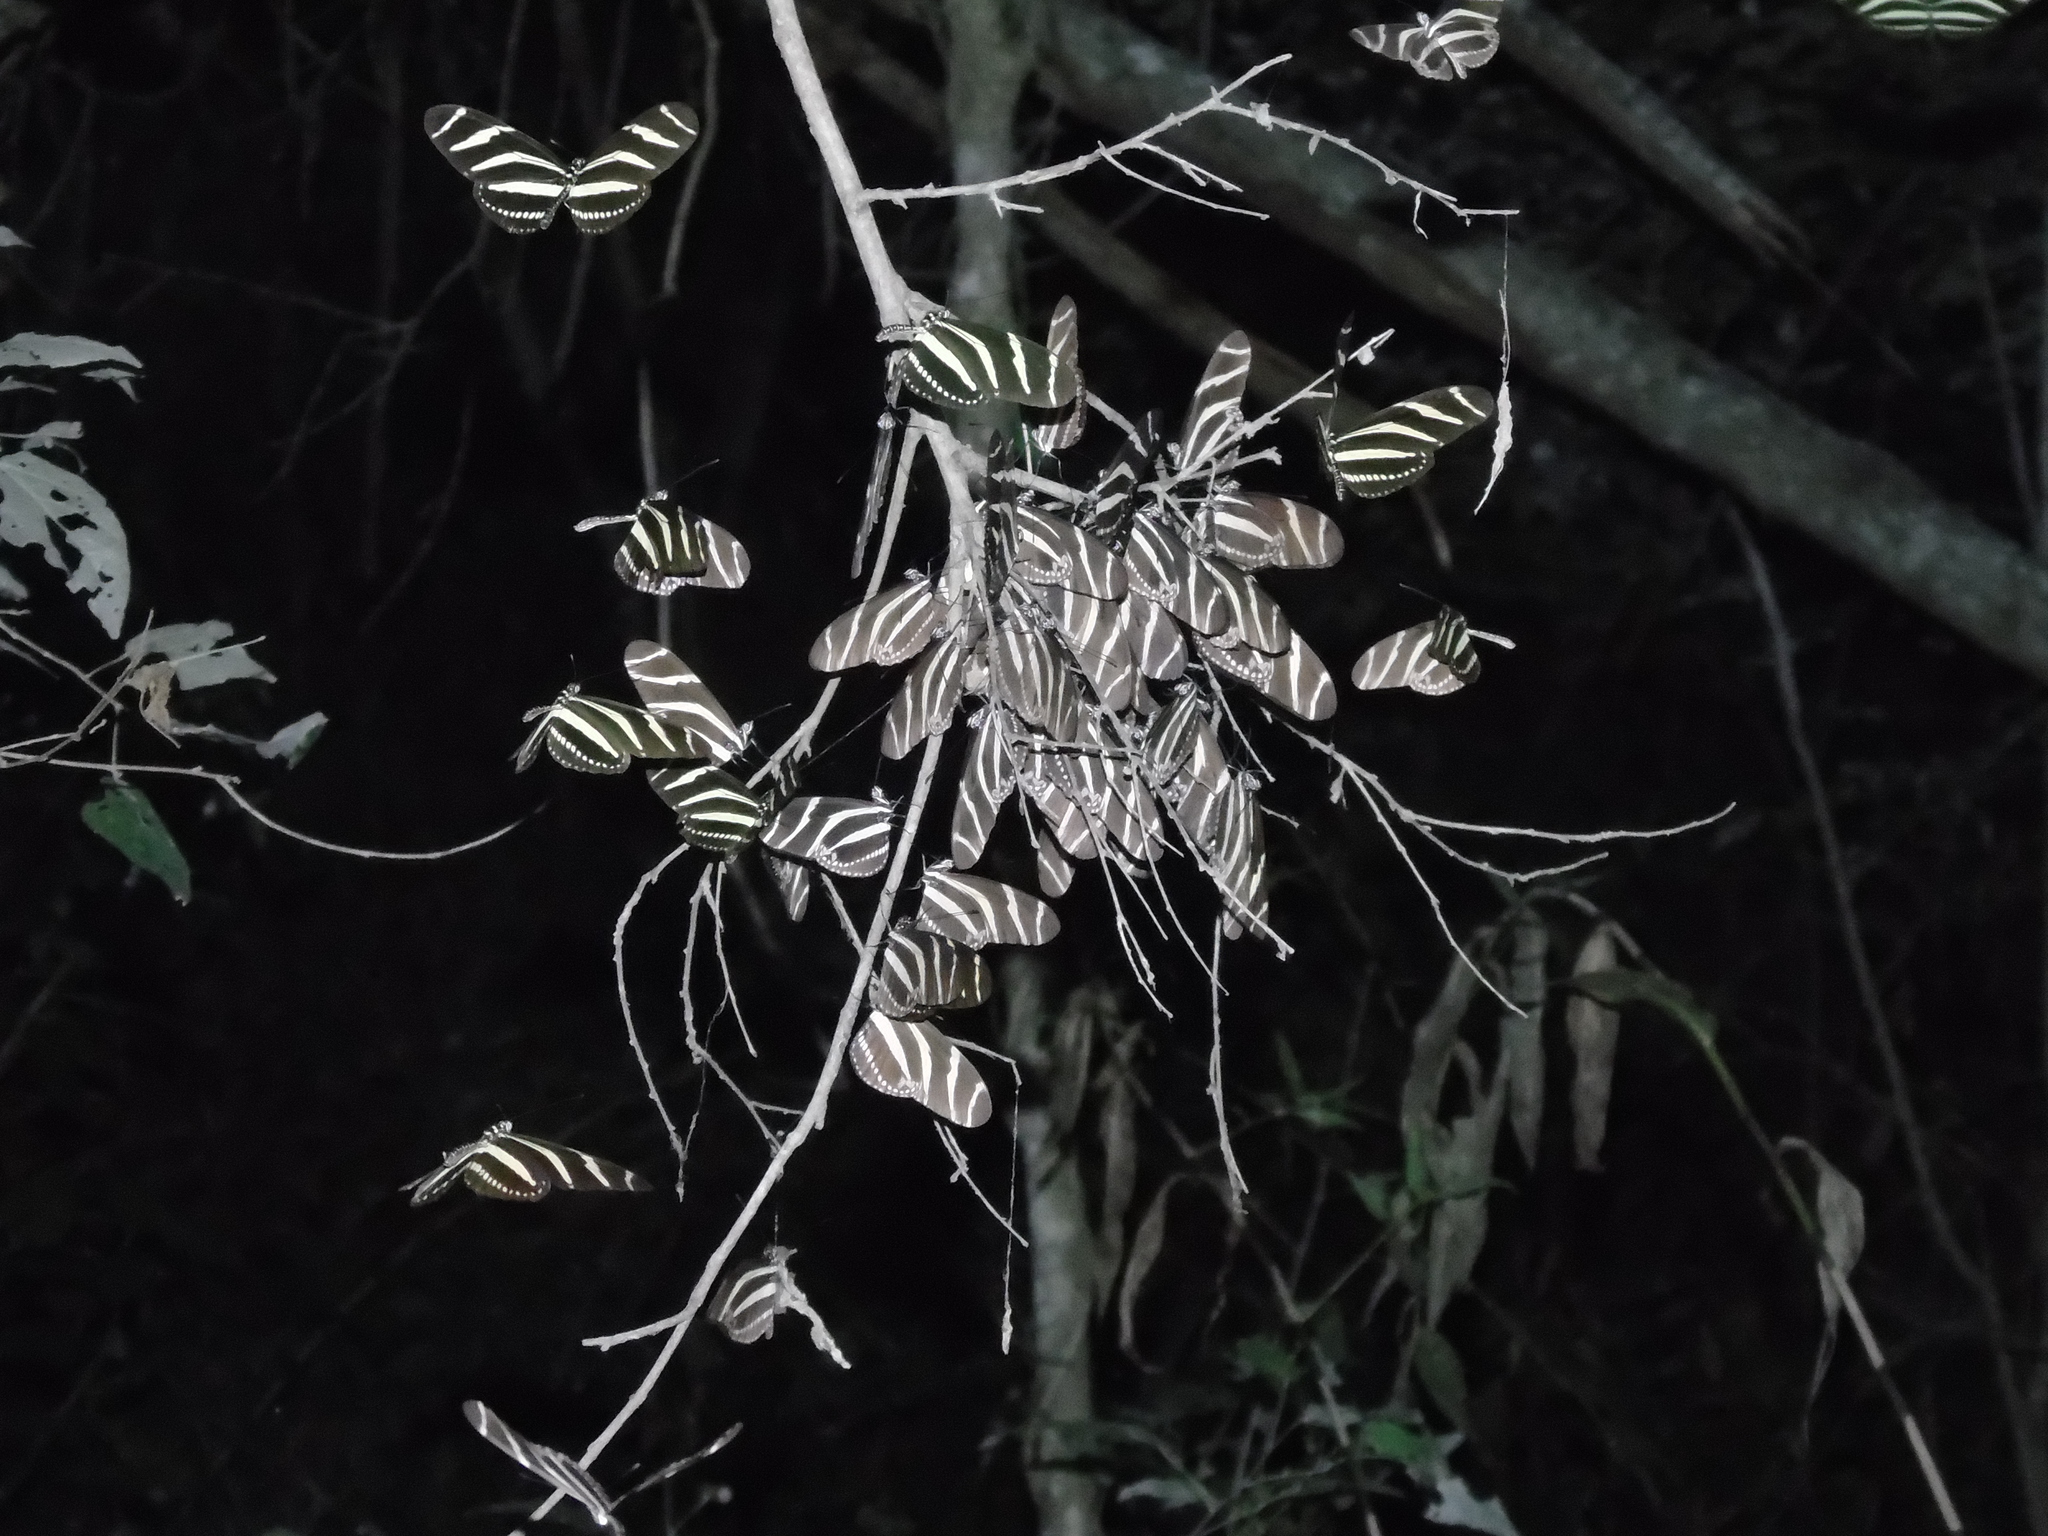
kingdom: Animalia
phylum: Arthropoda
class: Insecta
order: Lepidoptera
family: Nymphalidae
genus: Heliconius
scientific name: Heliconius charithonia
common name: Zebra long wing
